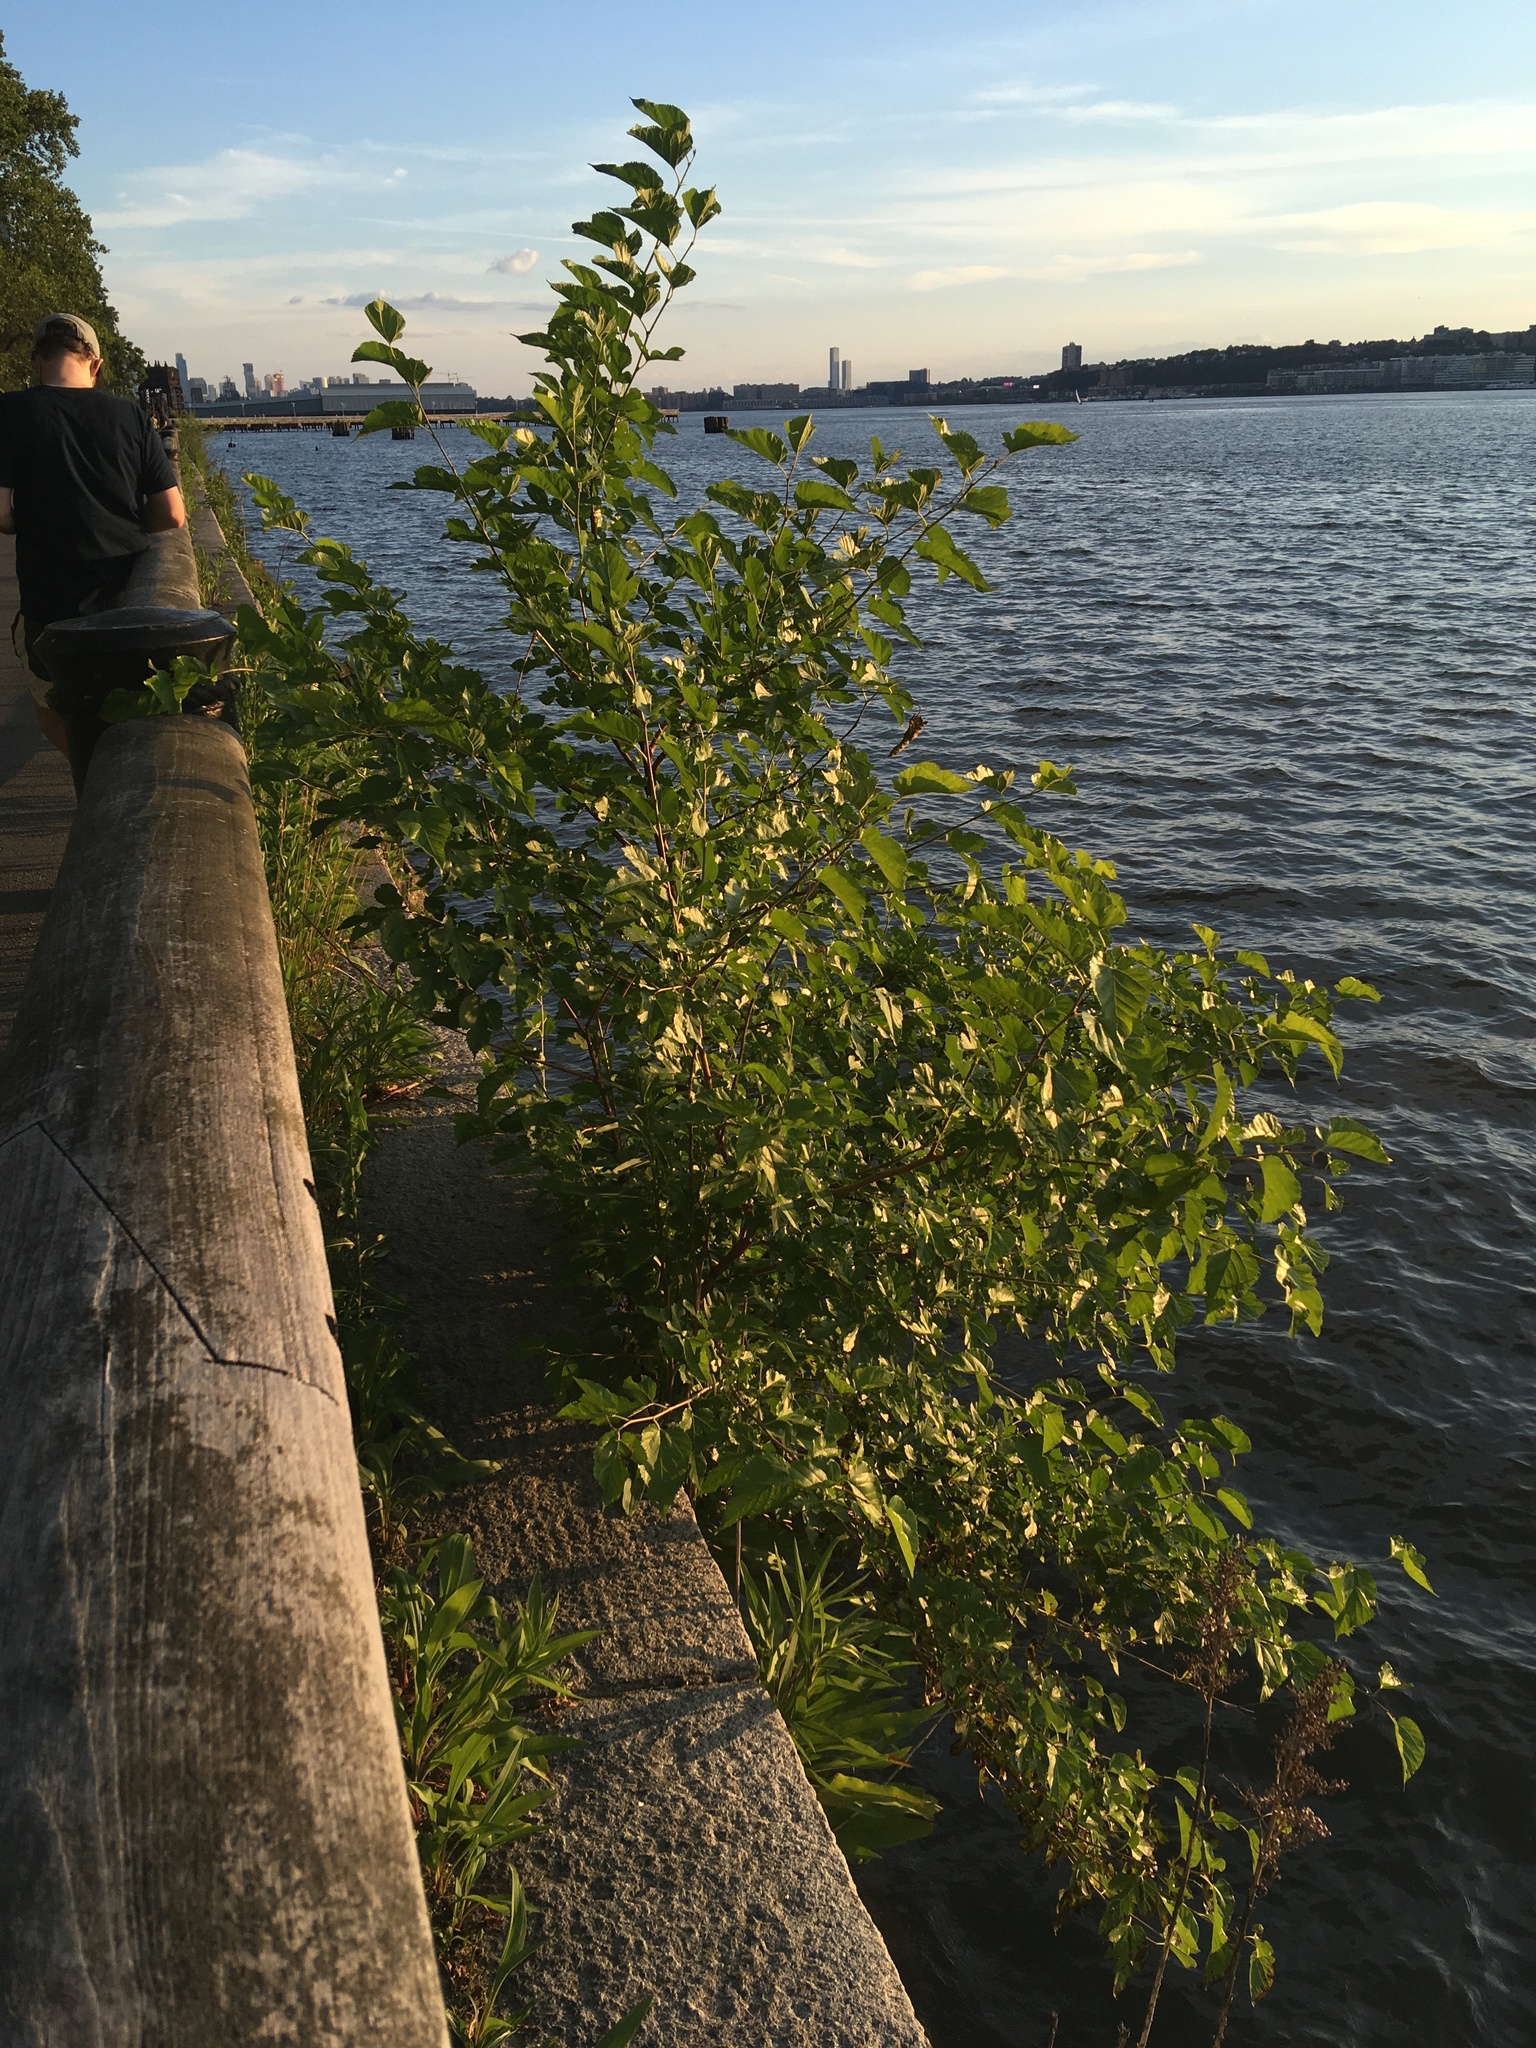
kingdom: Plantae
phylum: Tracheophyta
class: Magnoliopsida
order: Rosales
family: Moraceae
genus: Morus
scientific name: Morus alba
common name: White mulberry
